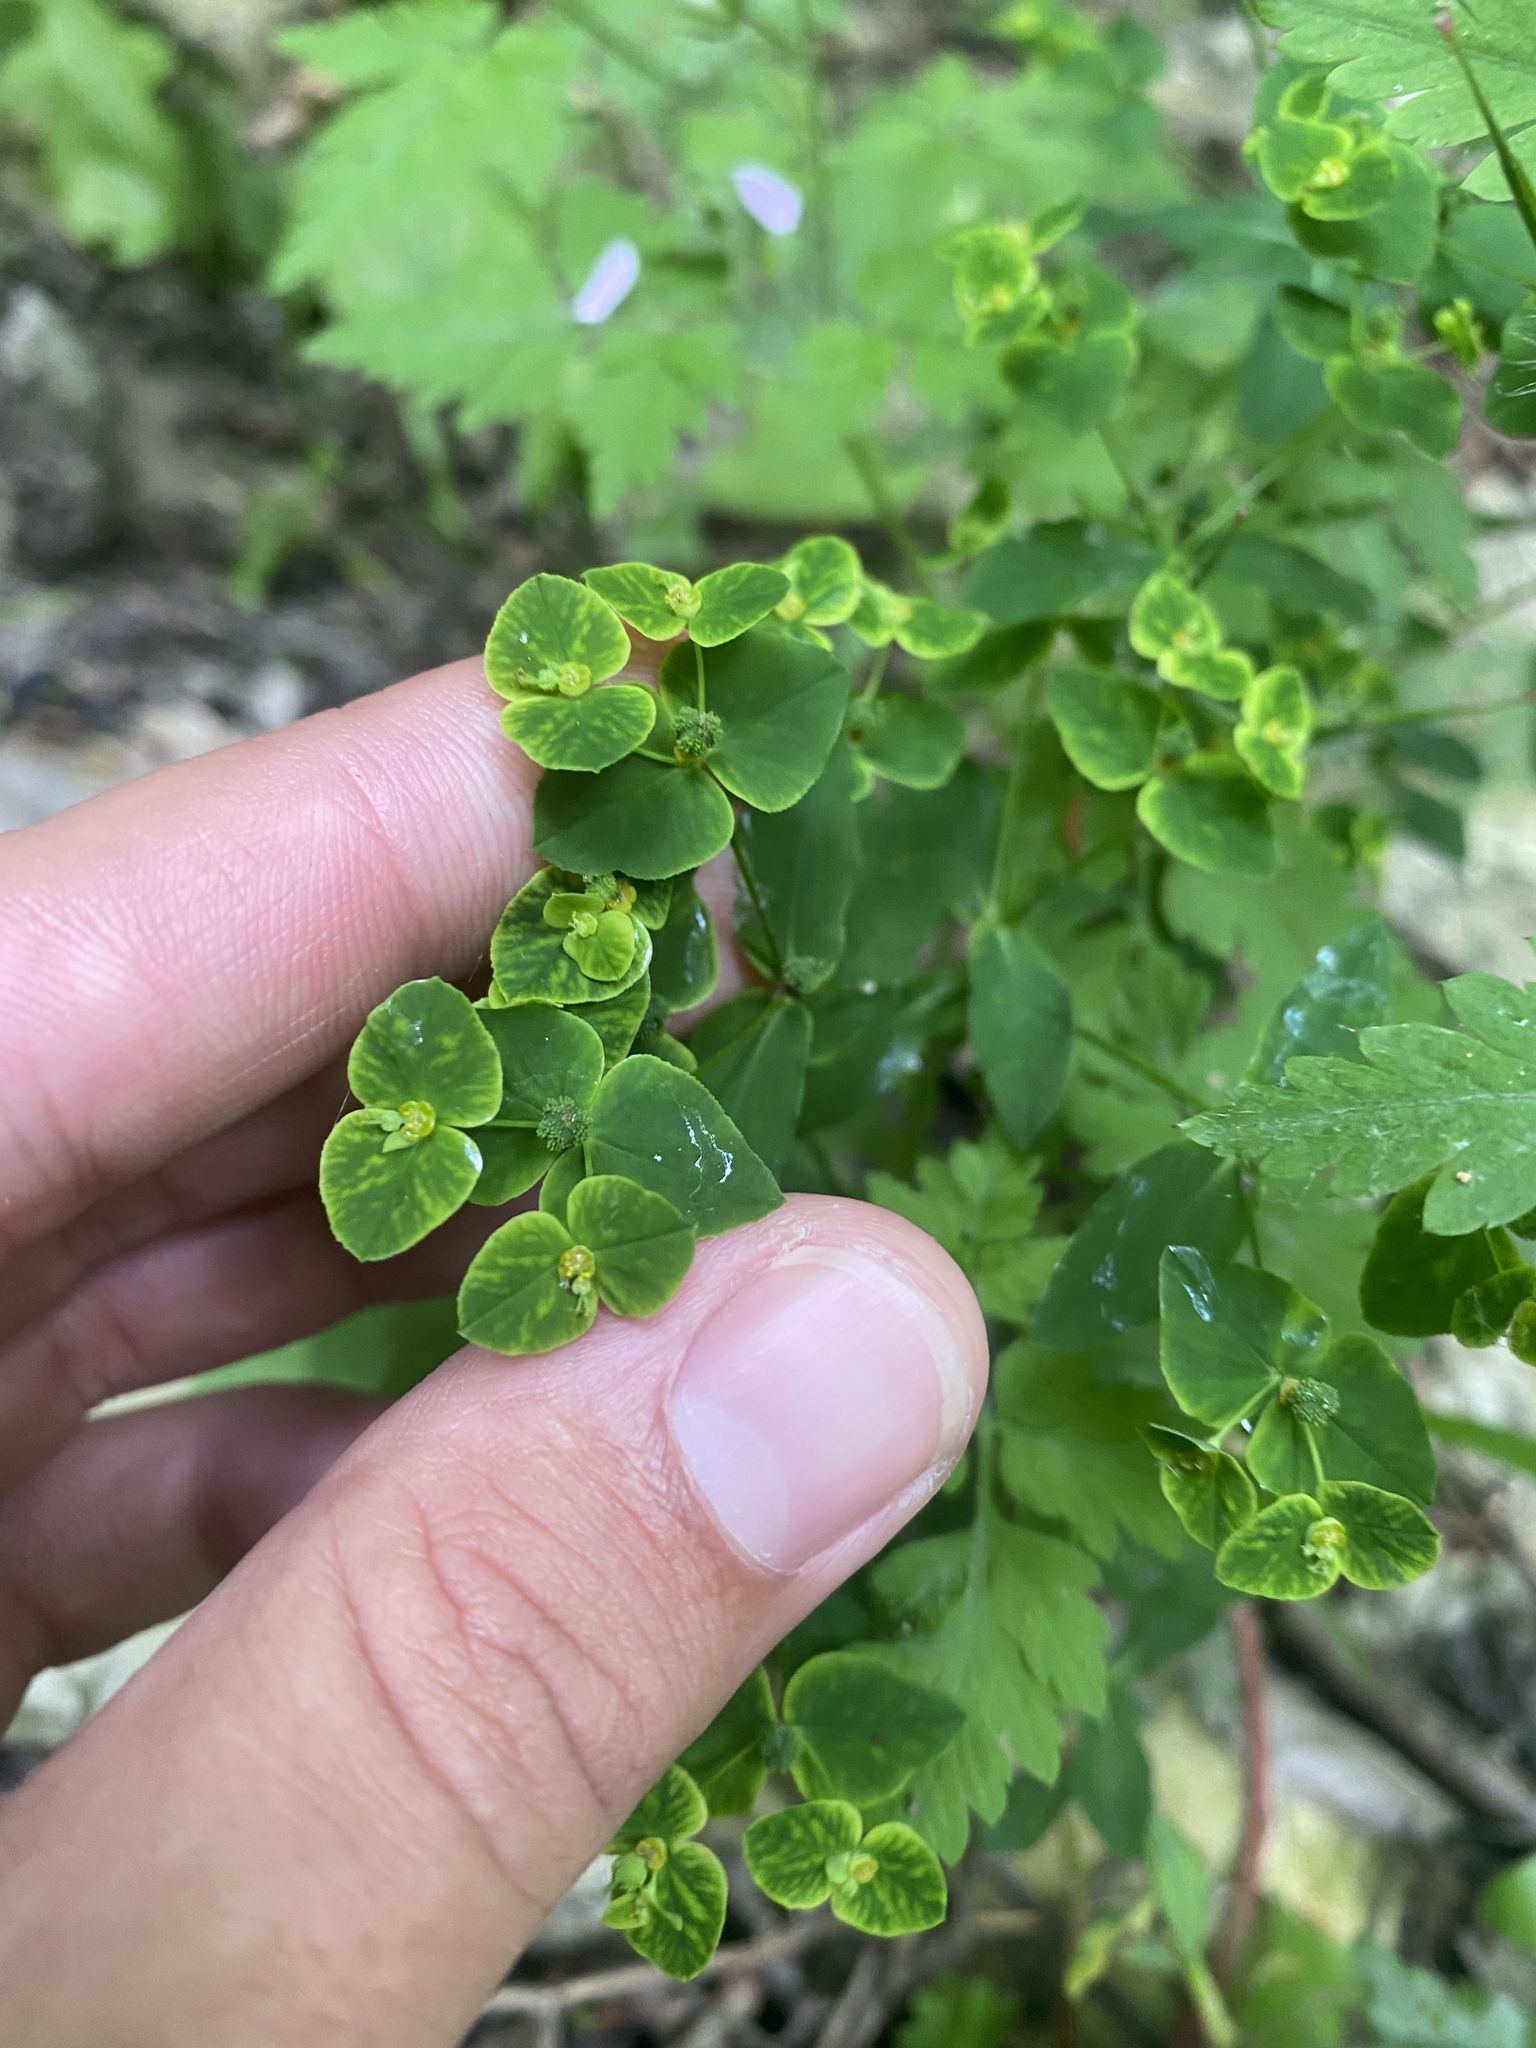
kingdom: Plantae
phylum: Tracheophyta
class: Magnoliopsida
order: Malpighiales
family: Euphorbiaceae
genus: Euphorbia
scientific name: Euphorbia stricta
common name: Upright spurge
